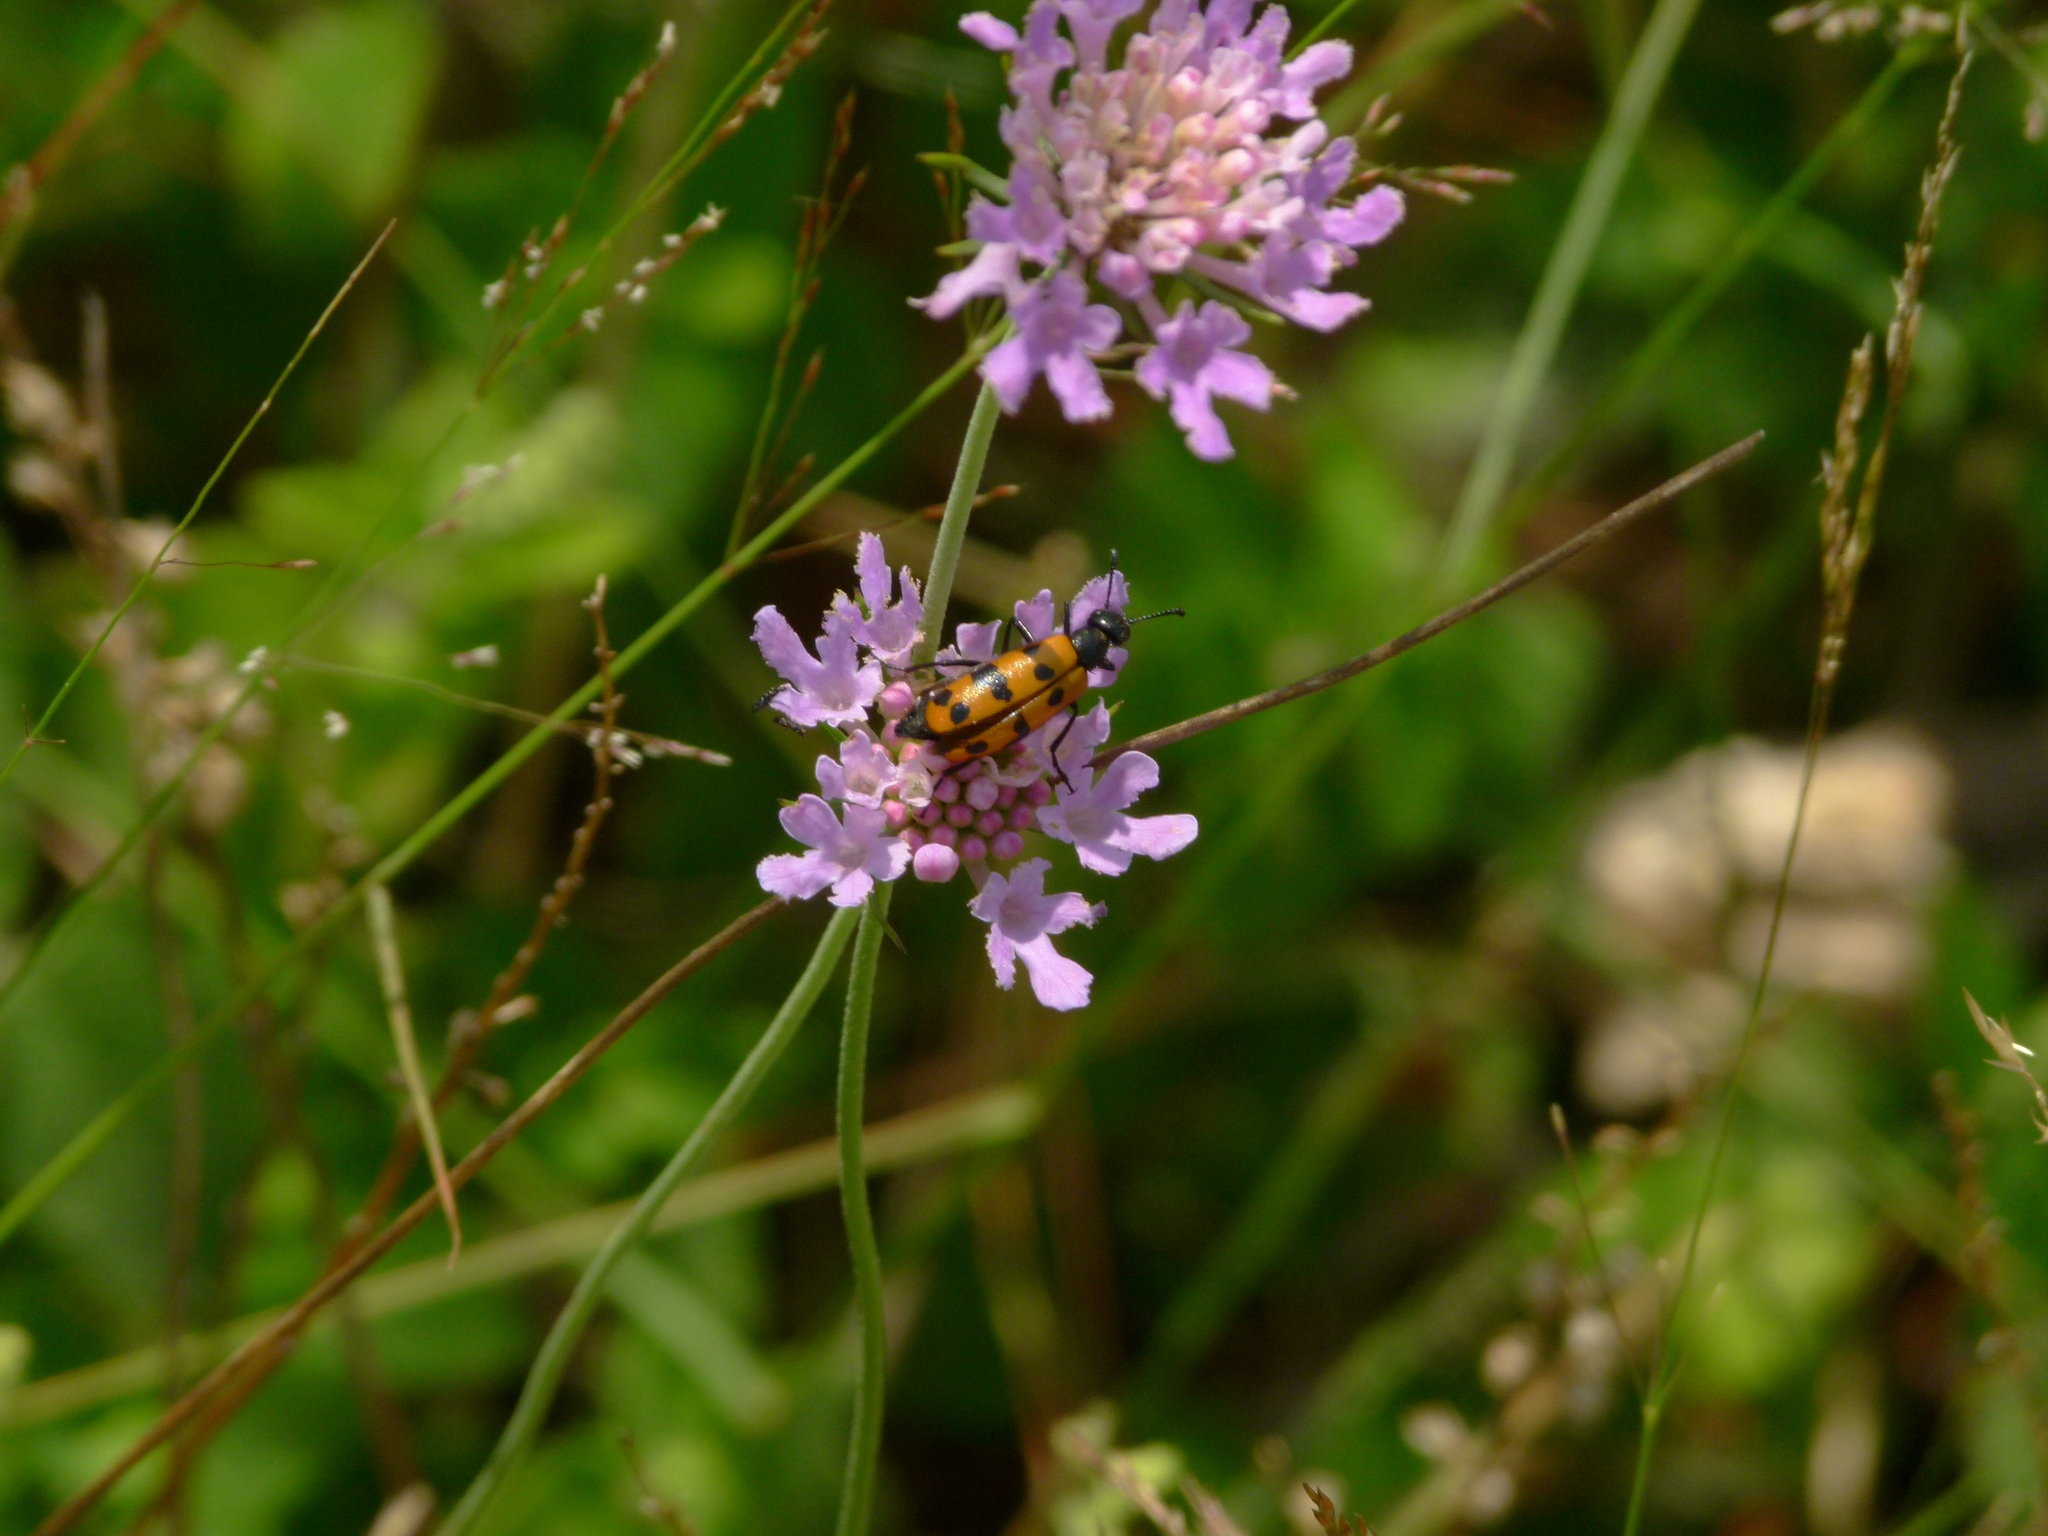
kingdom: Animalia
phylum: Arthropoda
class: Insecta
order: Coleoptera
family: Meloidae
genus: Mylabris
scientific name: Mylabris connata
